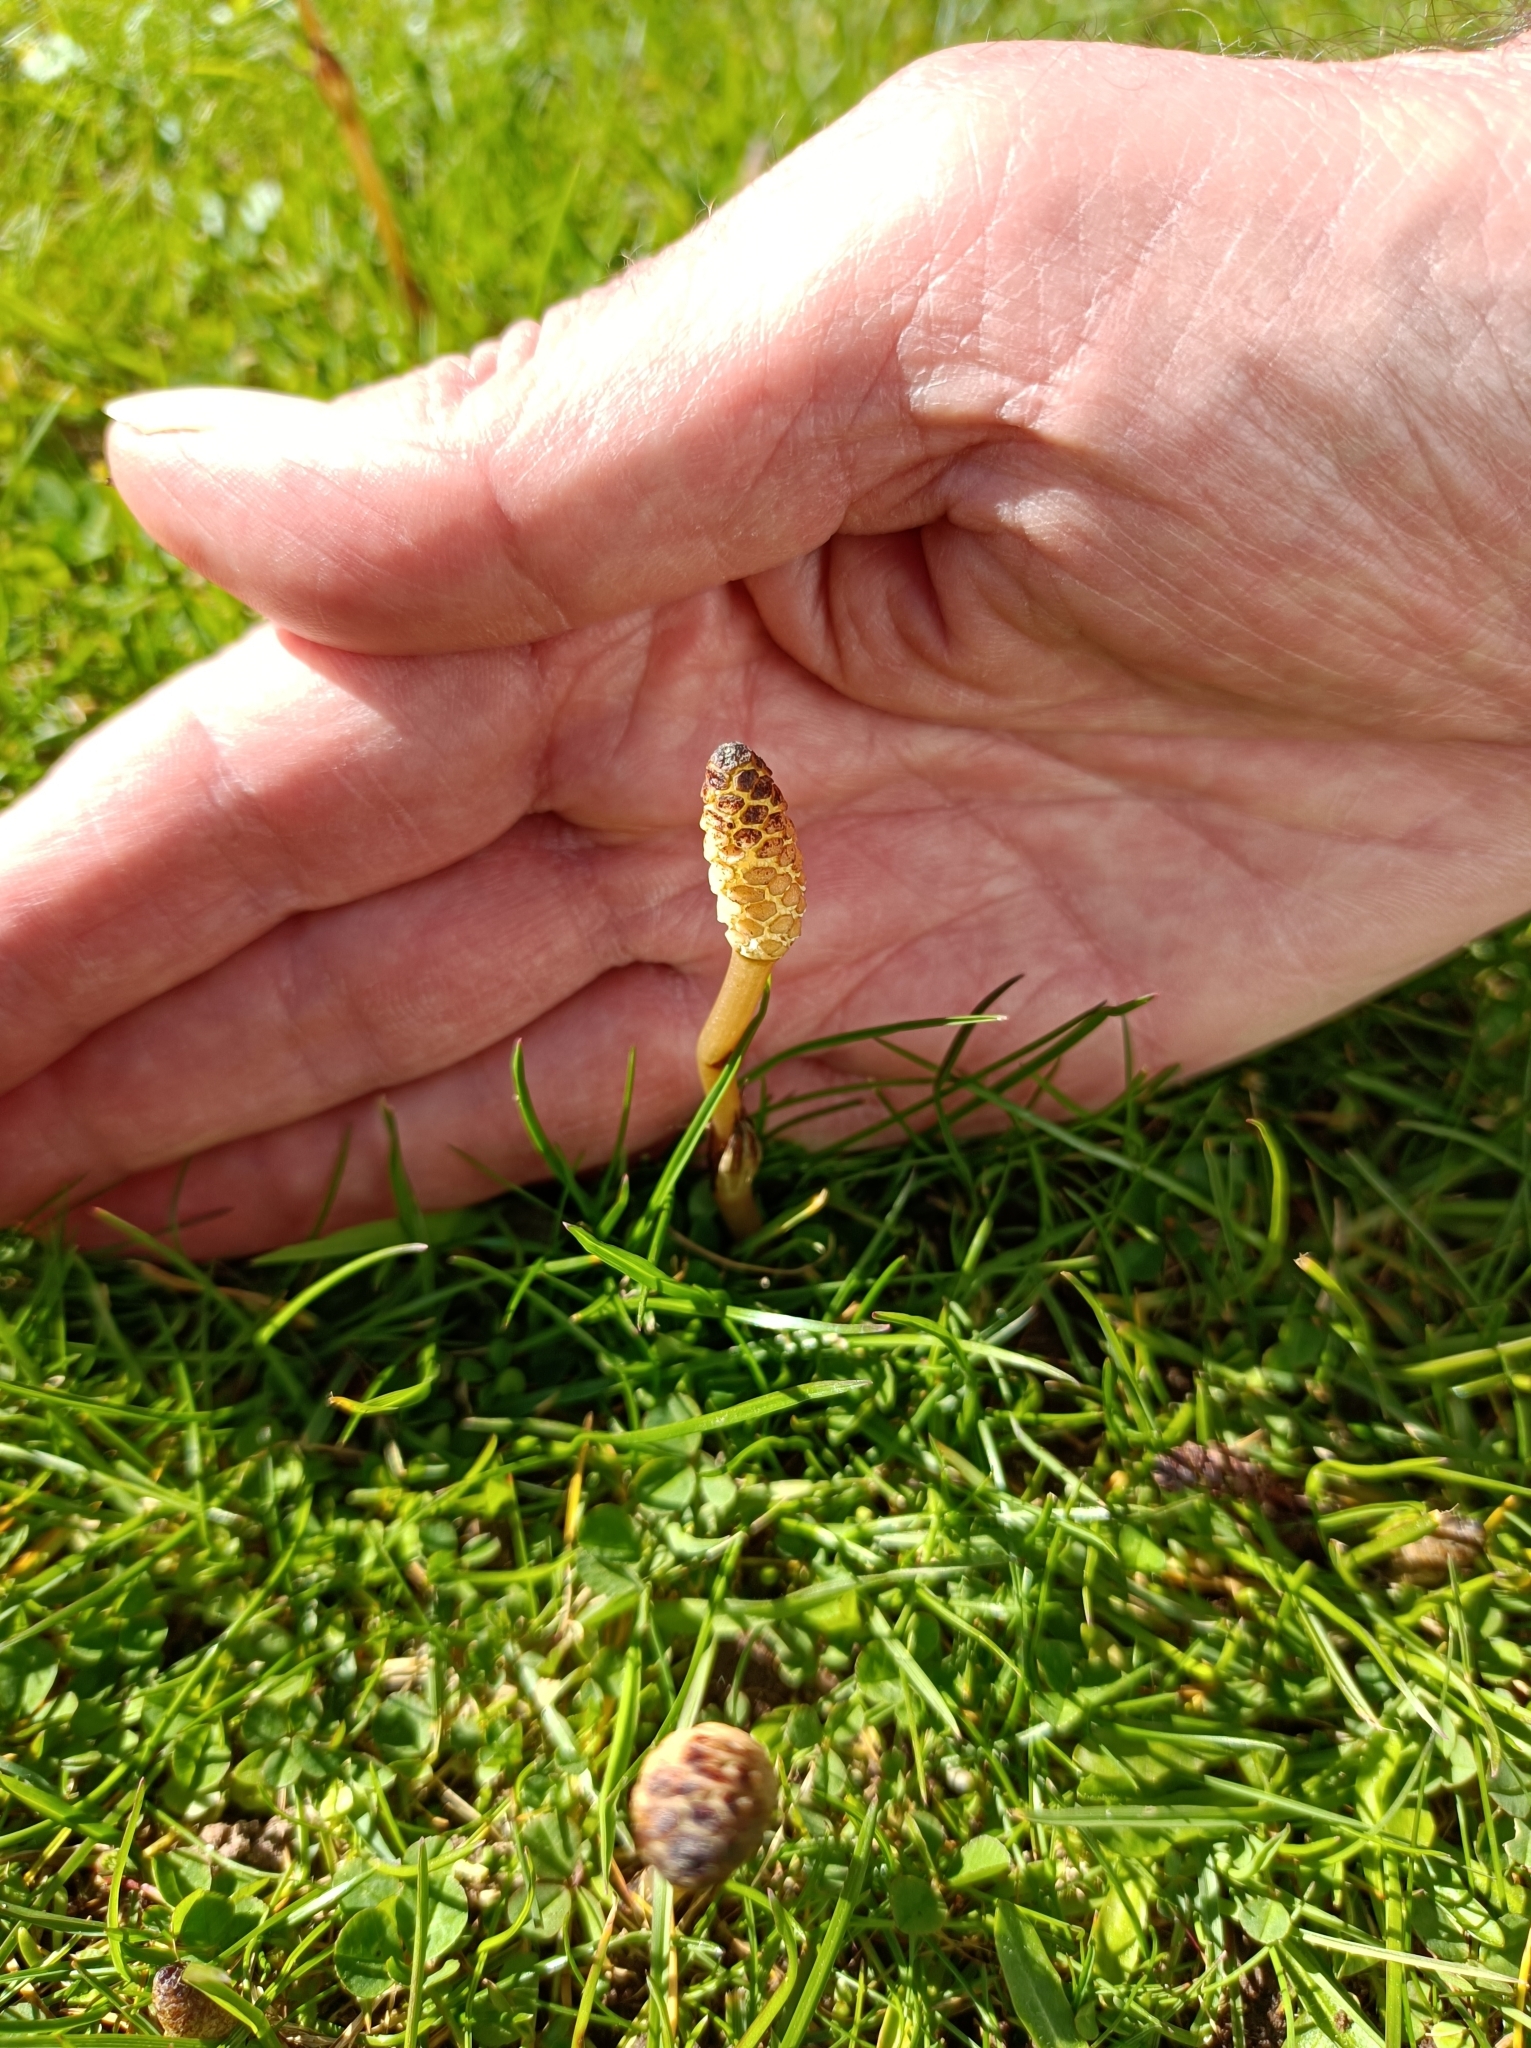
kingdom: Plantae
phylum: Tracheophyta
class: Polypodiopsida
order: Equisetales
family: Equisetaceae
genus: Equisetum
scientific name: Equisetum arvense
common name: Field horsetail
